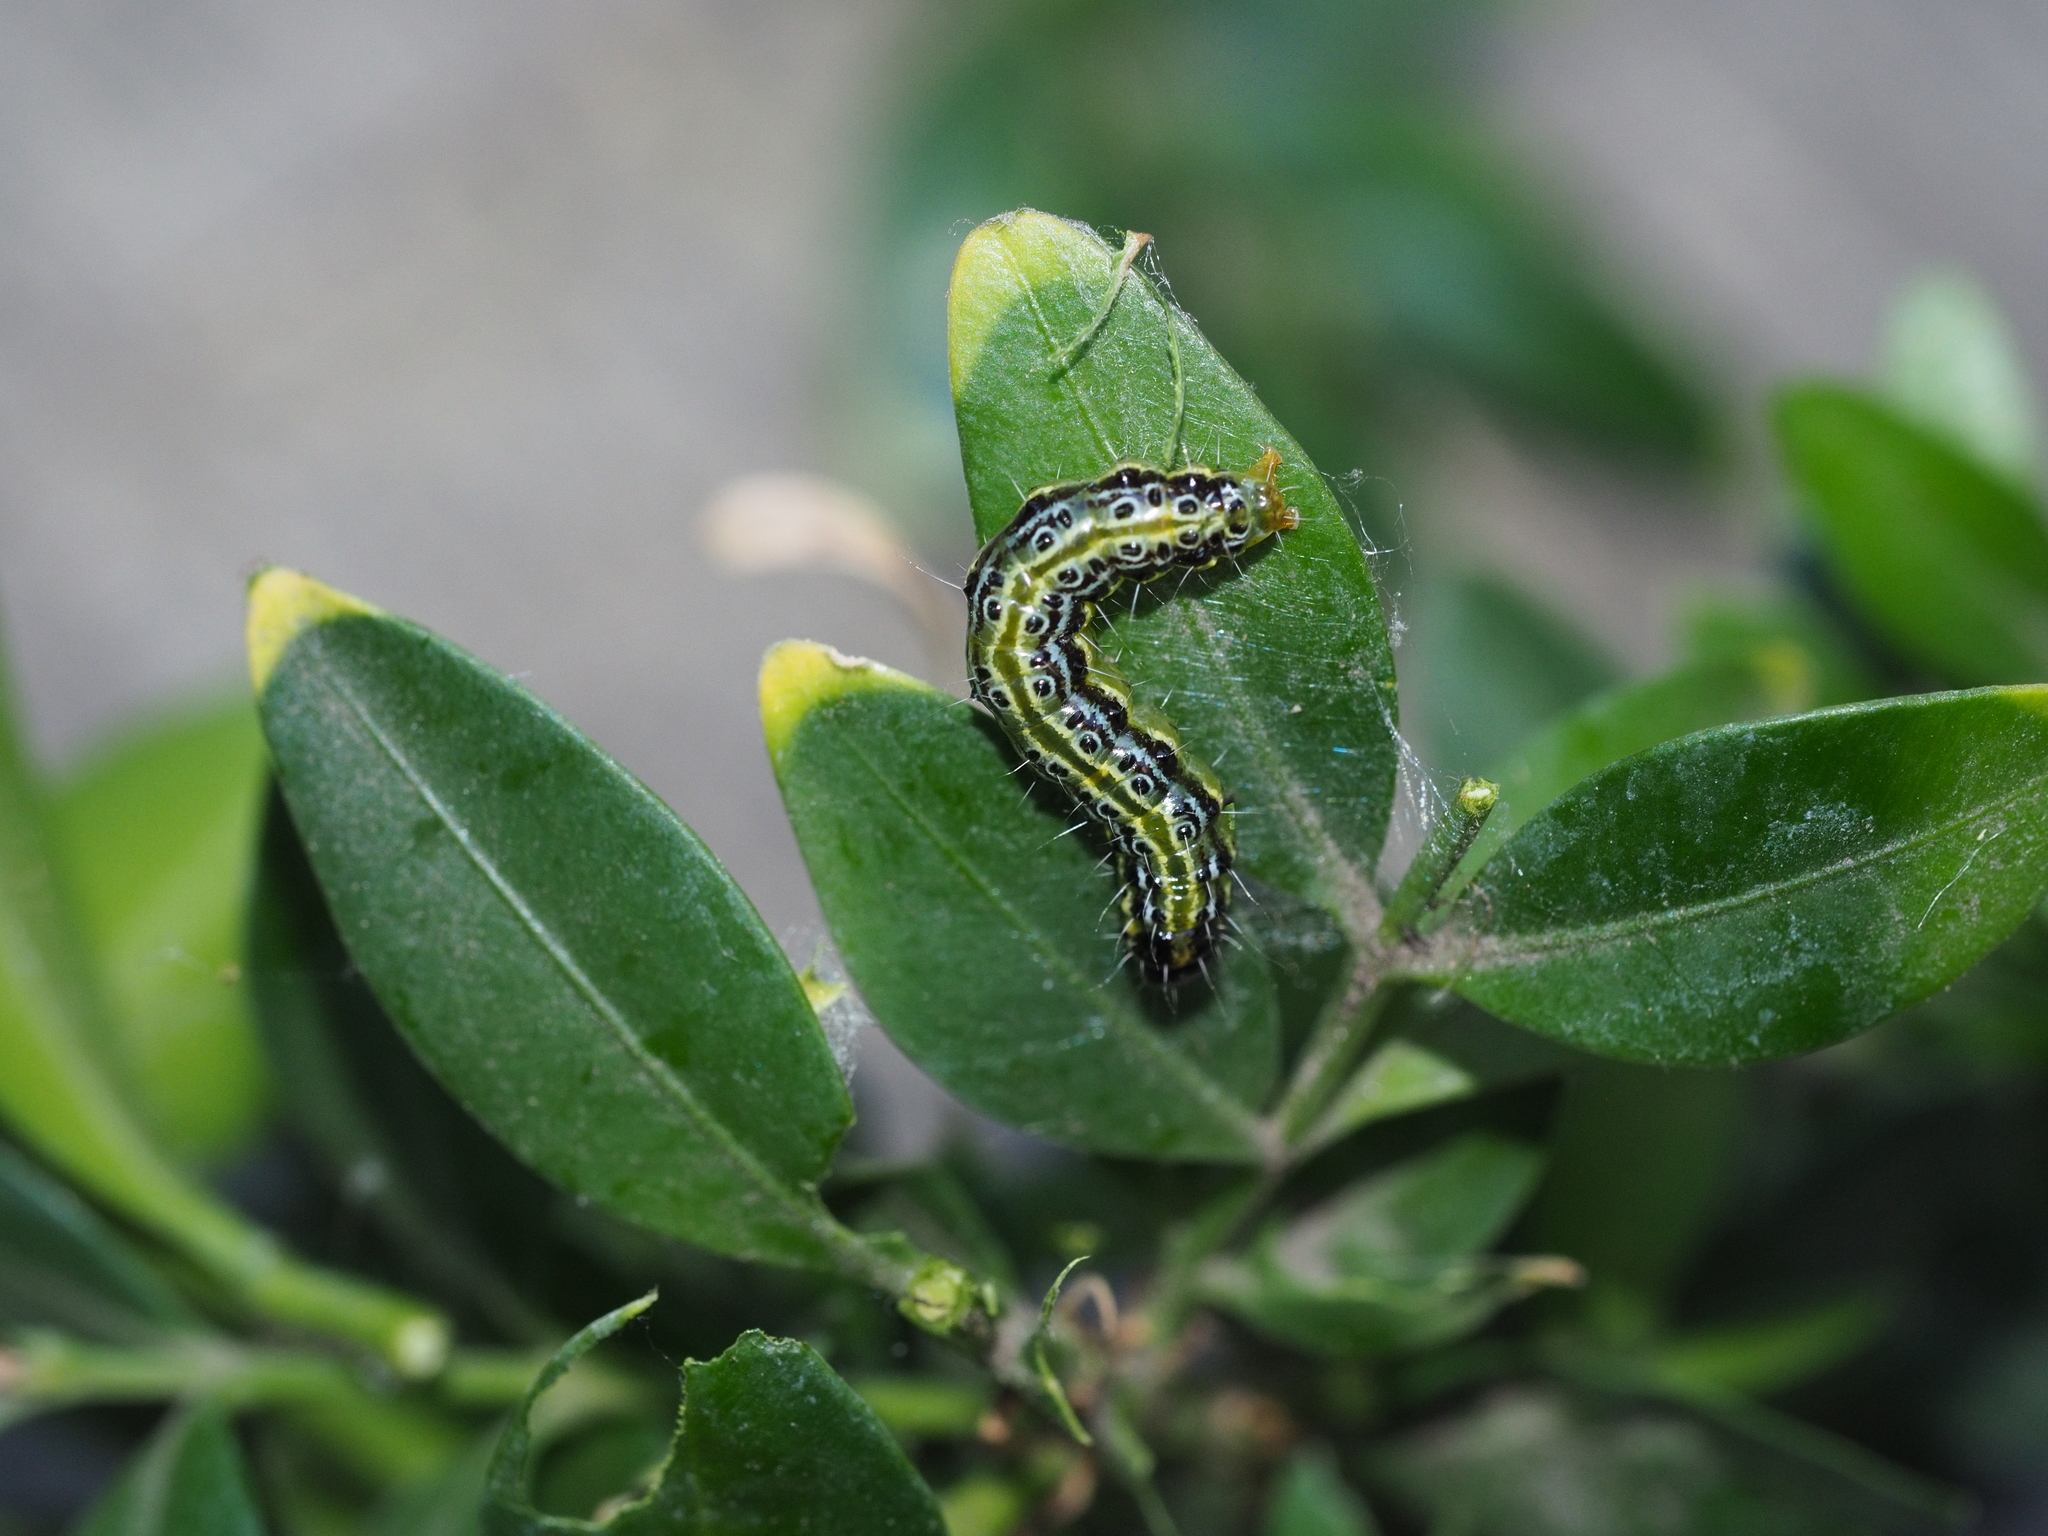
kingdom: Animalia
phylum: Arthropoda
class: Insecta
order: Lepidoptera
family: Crambidae
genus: Cydalima
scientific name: Cydalima perspectalis
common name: Box tree moth
